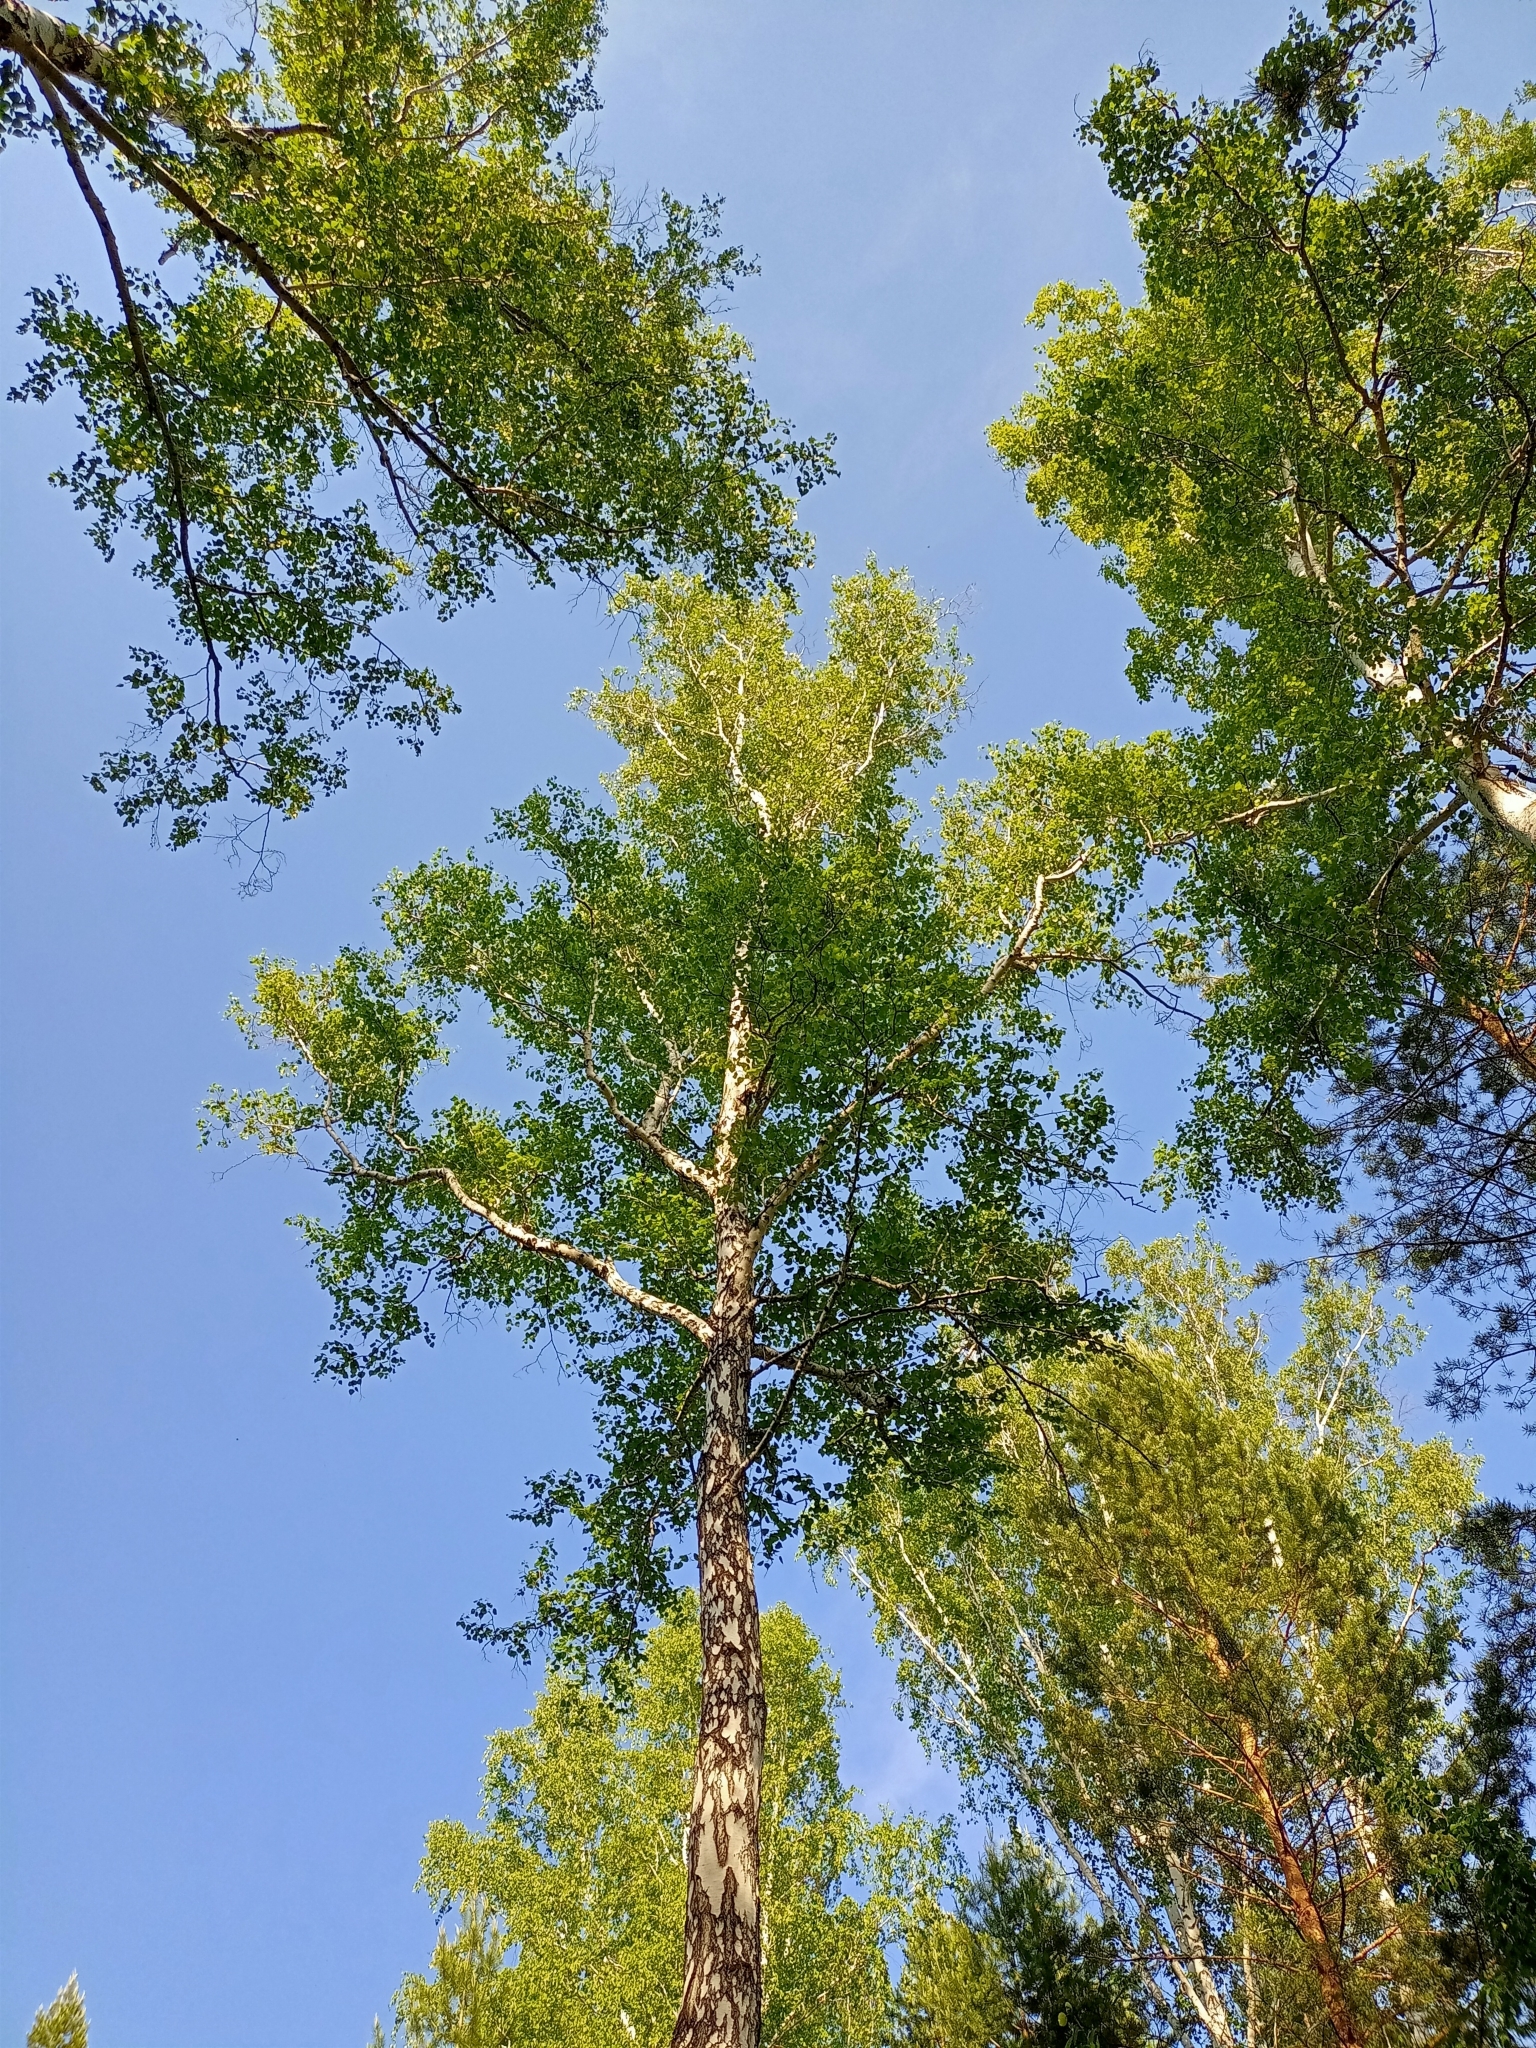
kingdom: Plantae
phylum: Tracheophyta
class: Magnoliopsida
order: Fagales
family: Betulaceae
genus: Betula
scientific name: Betula pendula
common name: Silver birch
